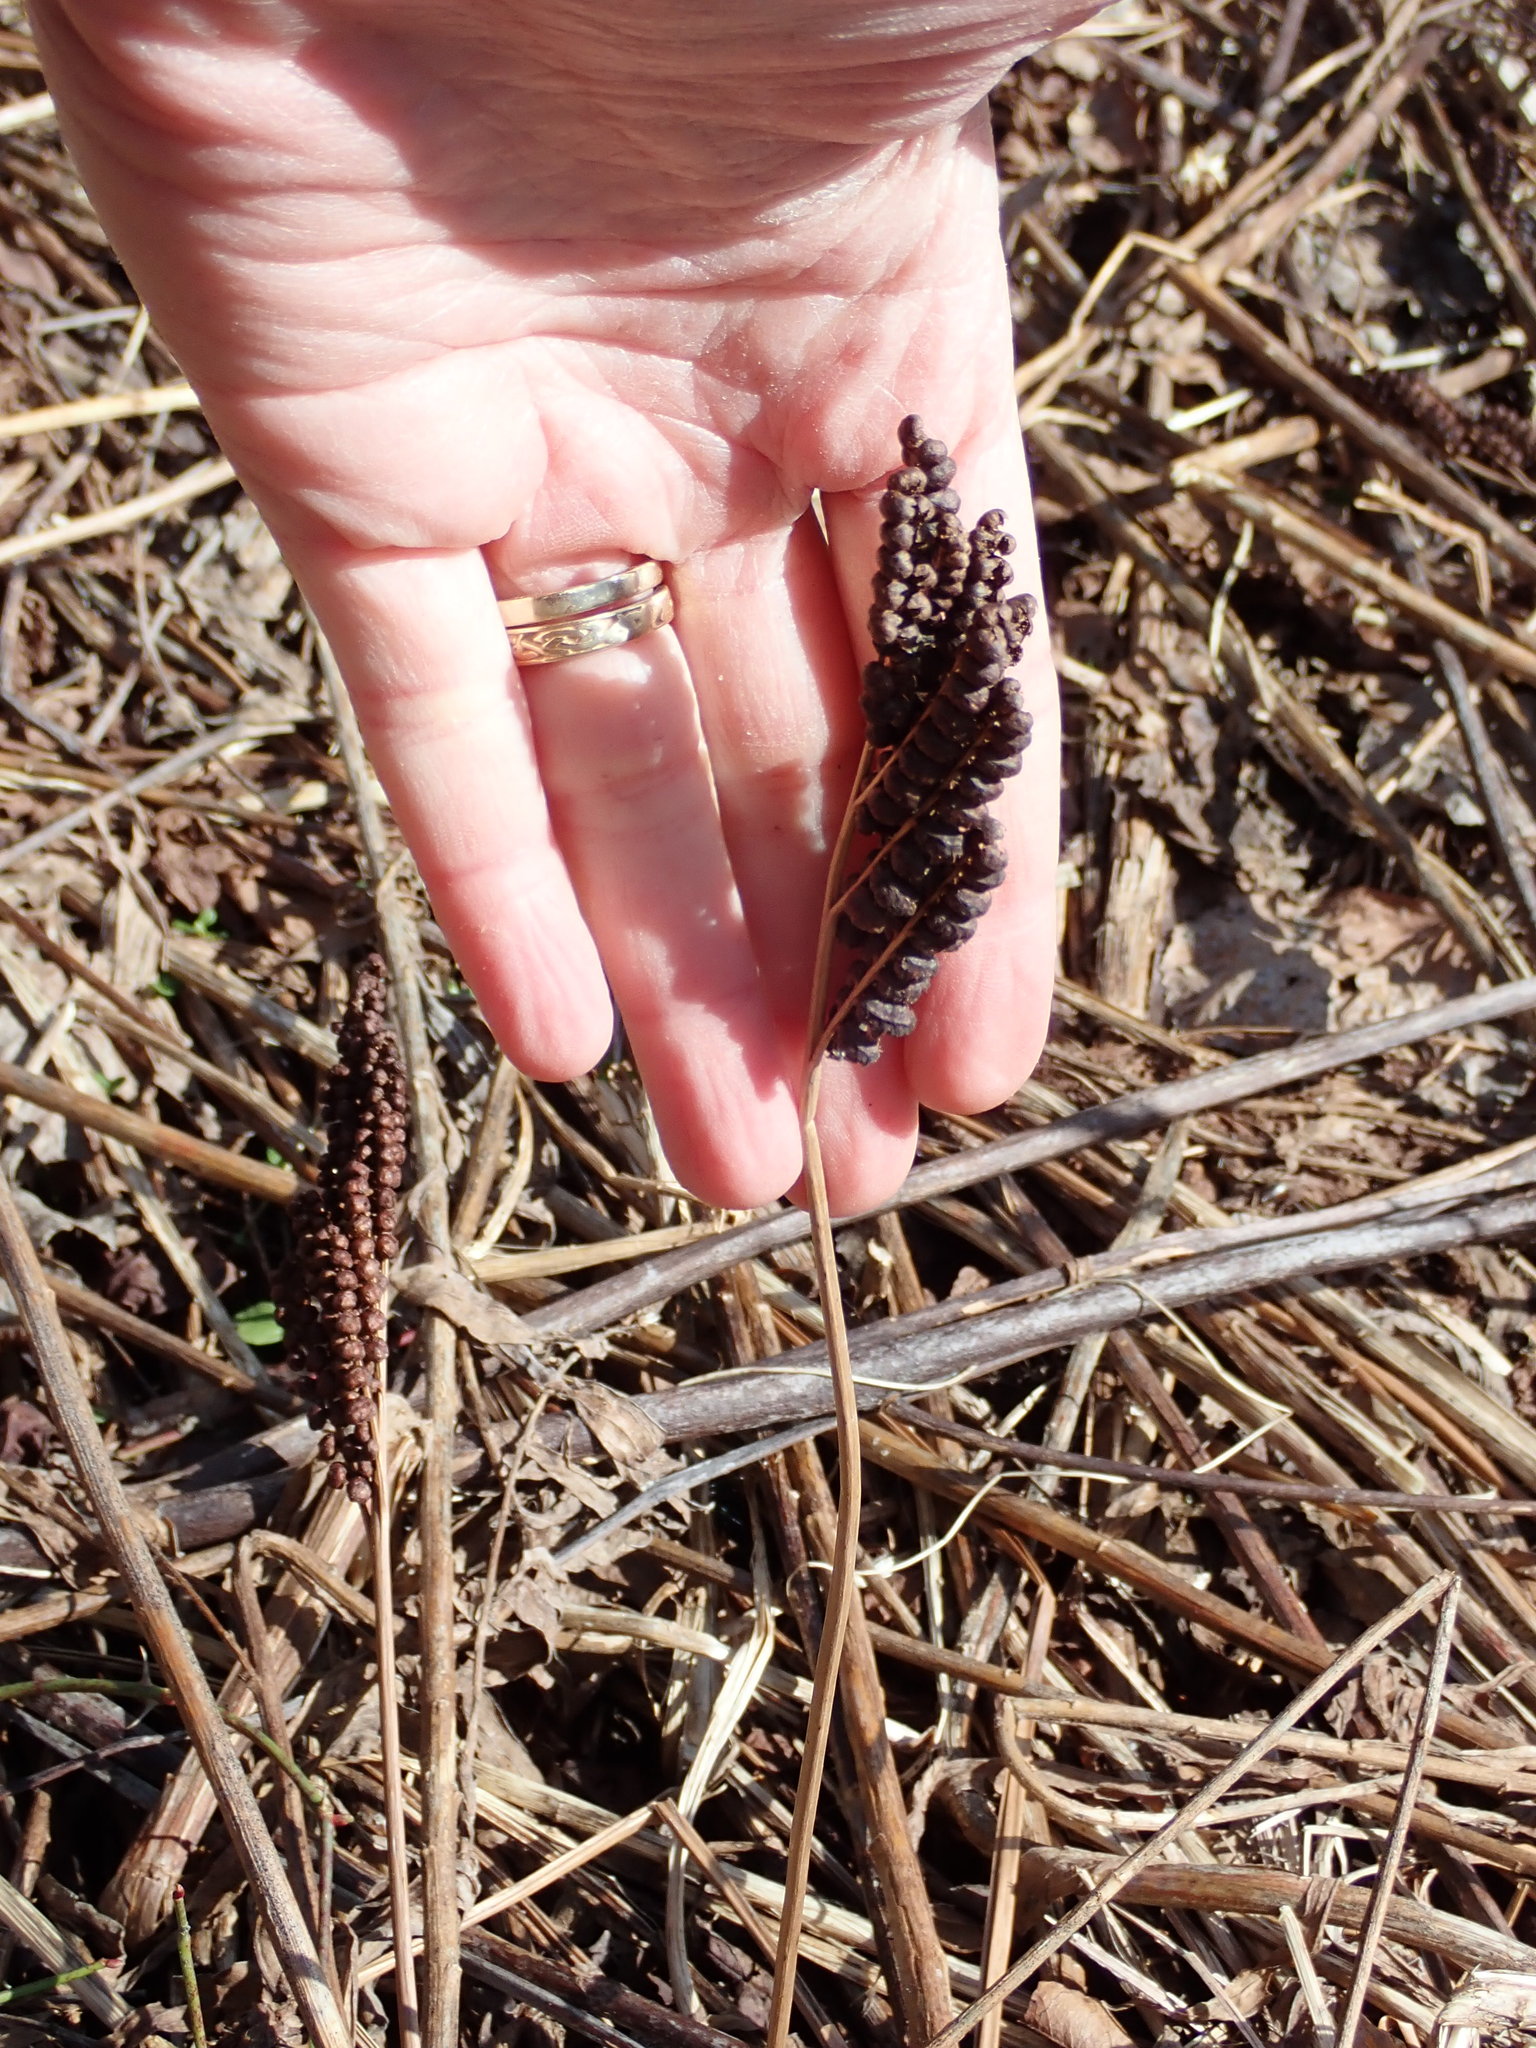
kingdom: Plantae
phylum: Tracheophyta
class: Polypodiopsida
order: Polypodiales
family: Onocleaceae
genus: Onoclea
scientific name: Onoclea sensibilis
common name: Sensitive fern
